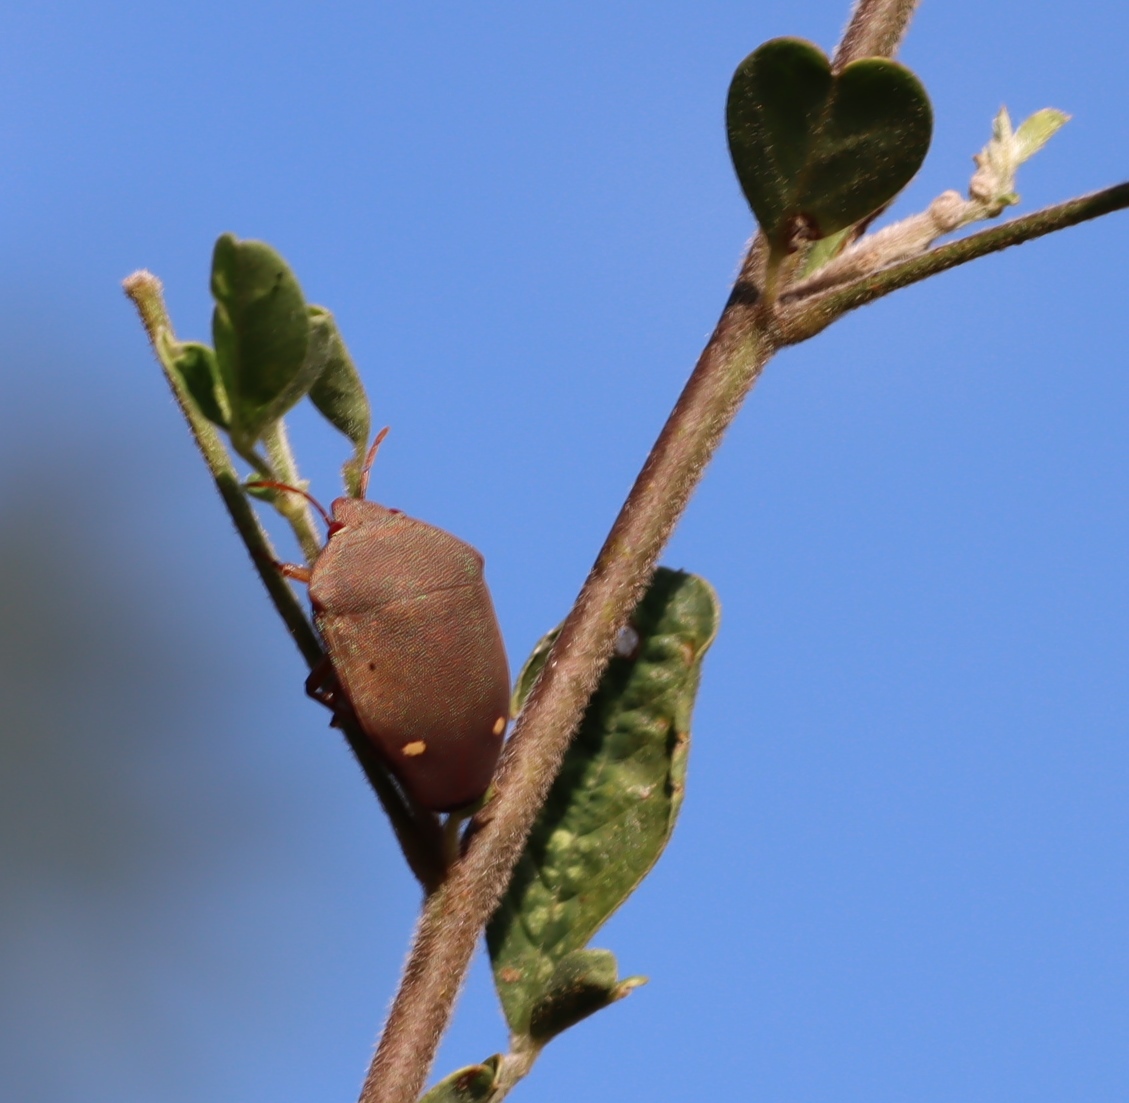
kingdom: Animalia
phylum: Arthropoda
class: Insecta
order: Hemiptera
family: Scutelleridae
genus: Solenosthedium
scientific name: Solenosthedium
